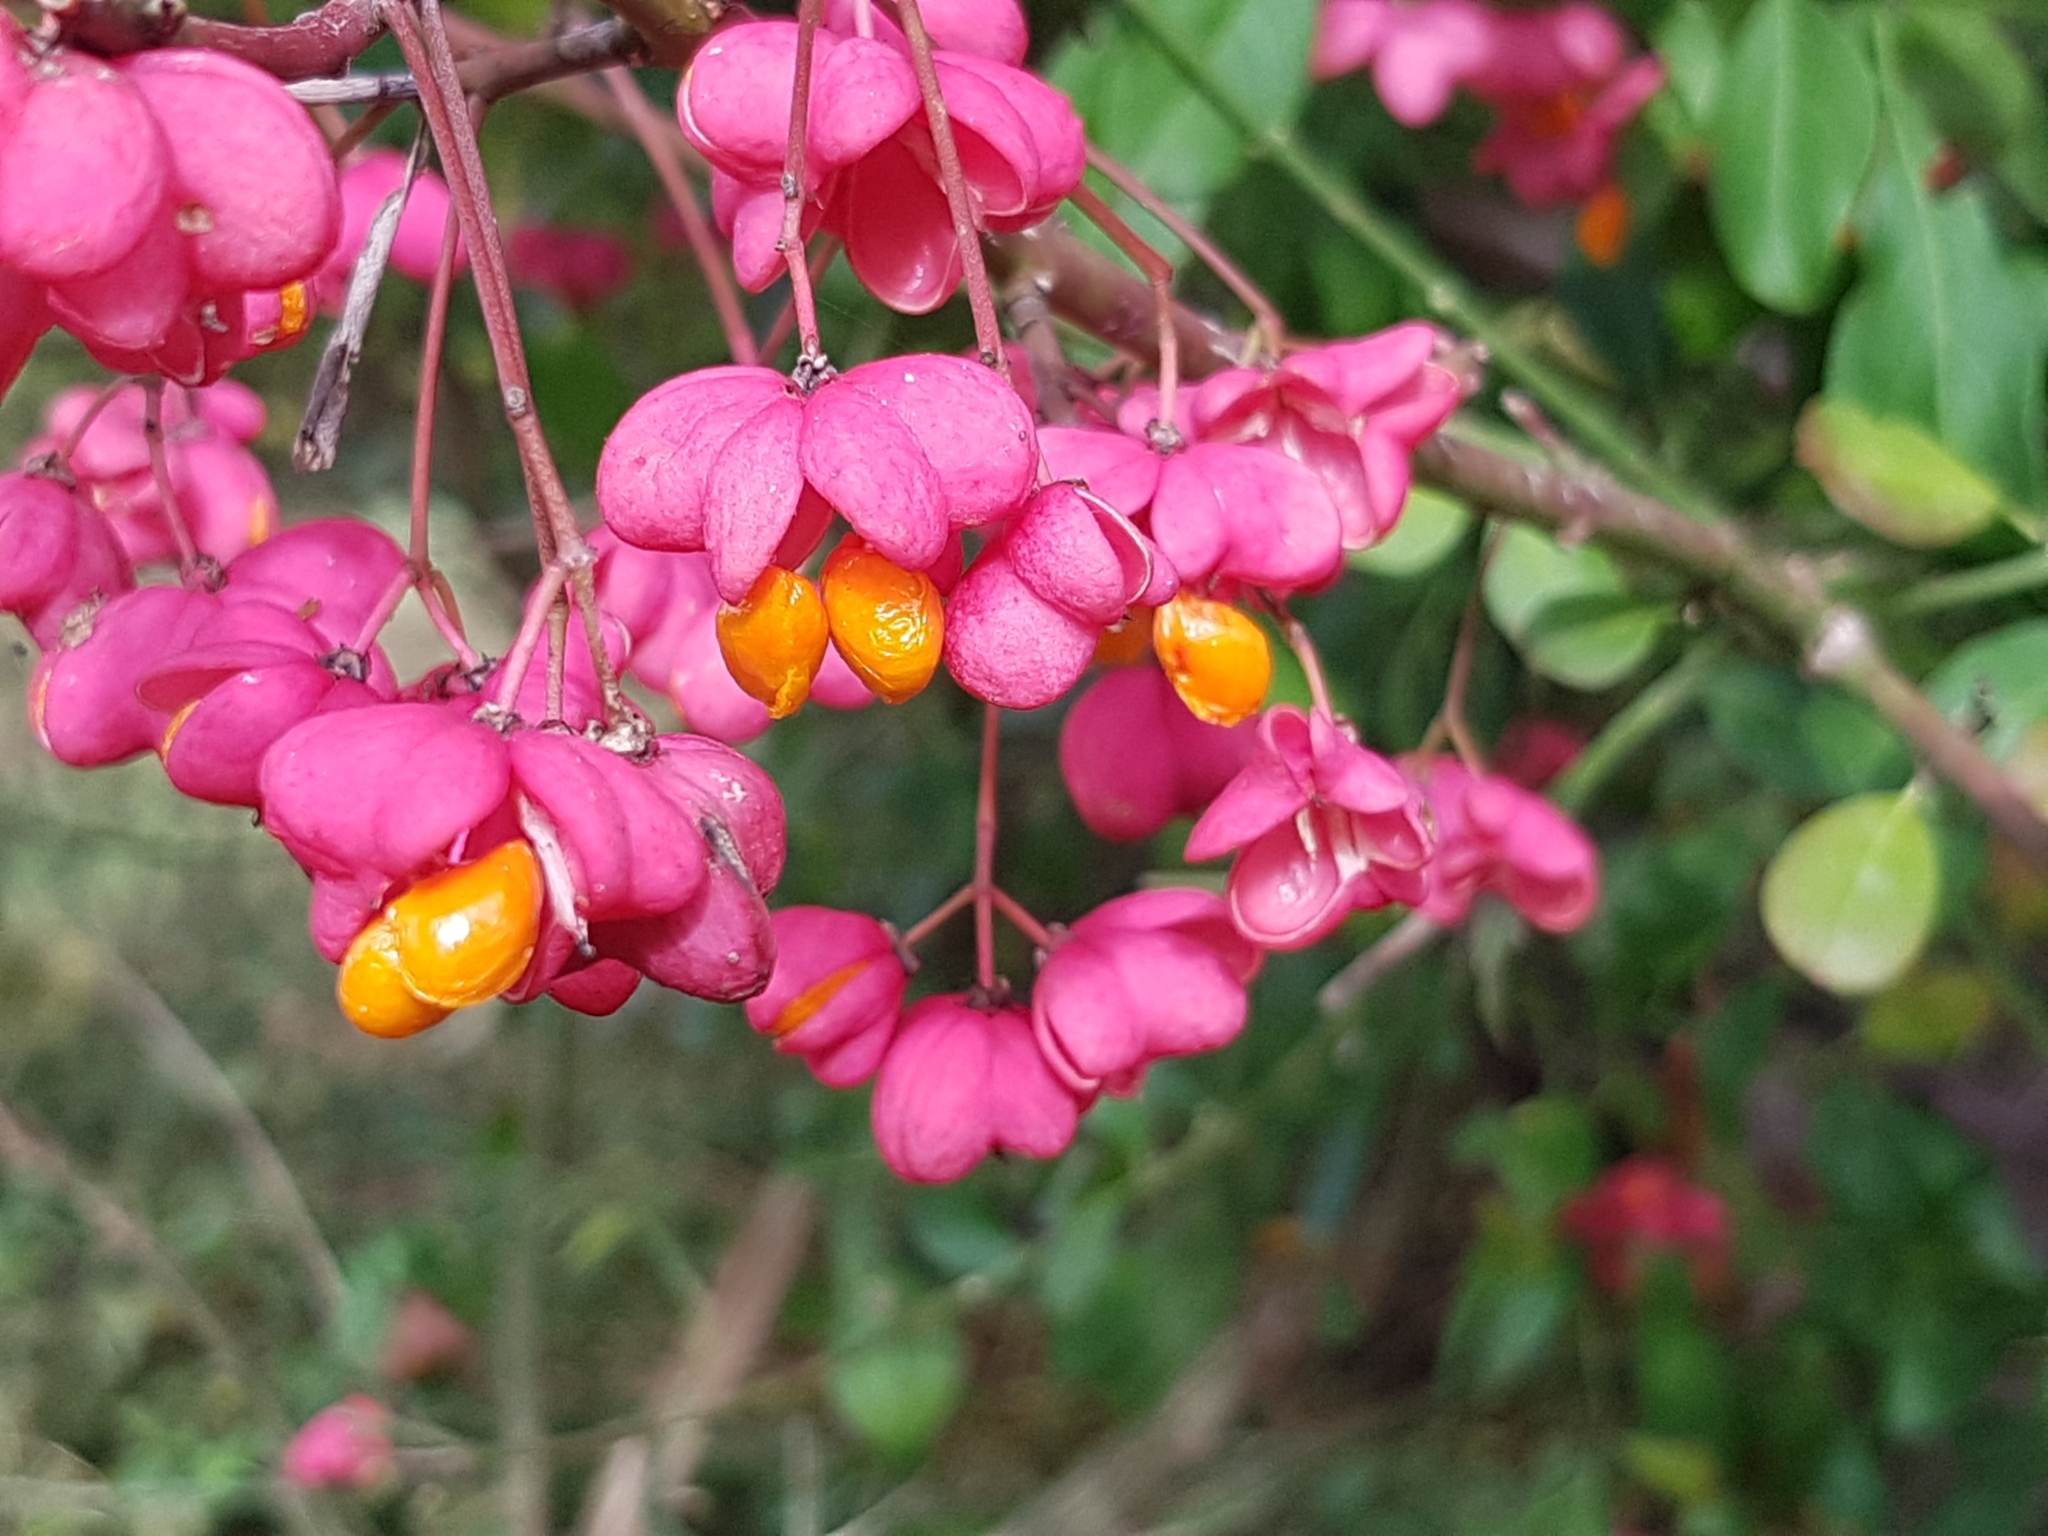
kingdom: Plantae
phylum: Tracheophyta
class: Magnoliopsida
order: Celastrales
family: Celastraceae
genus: Euonymus
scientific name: Euonymus europaeus
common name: Spindle
